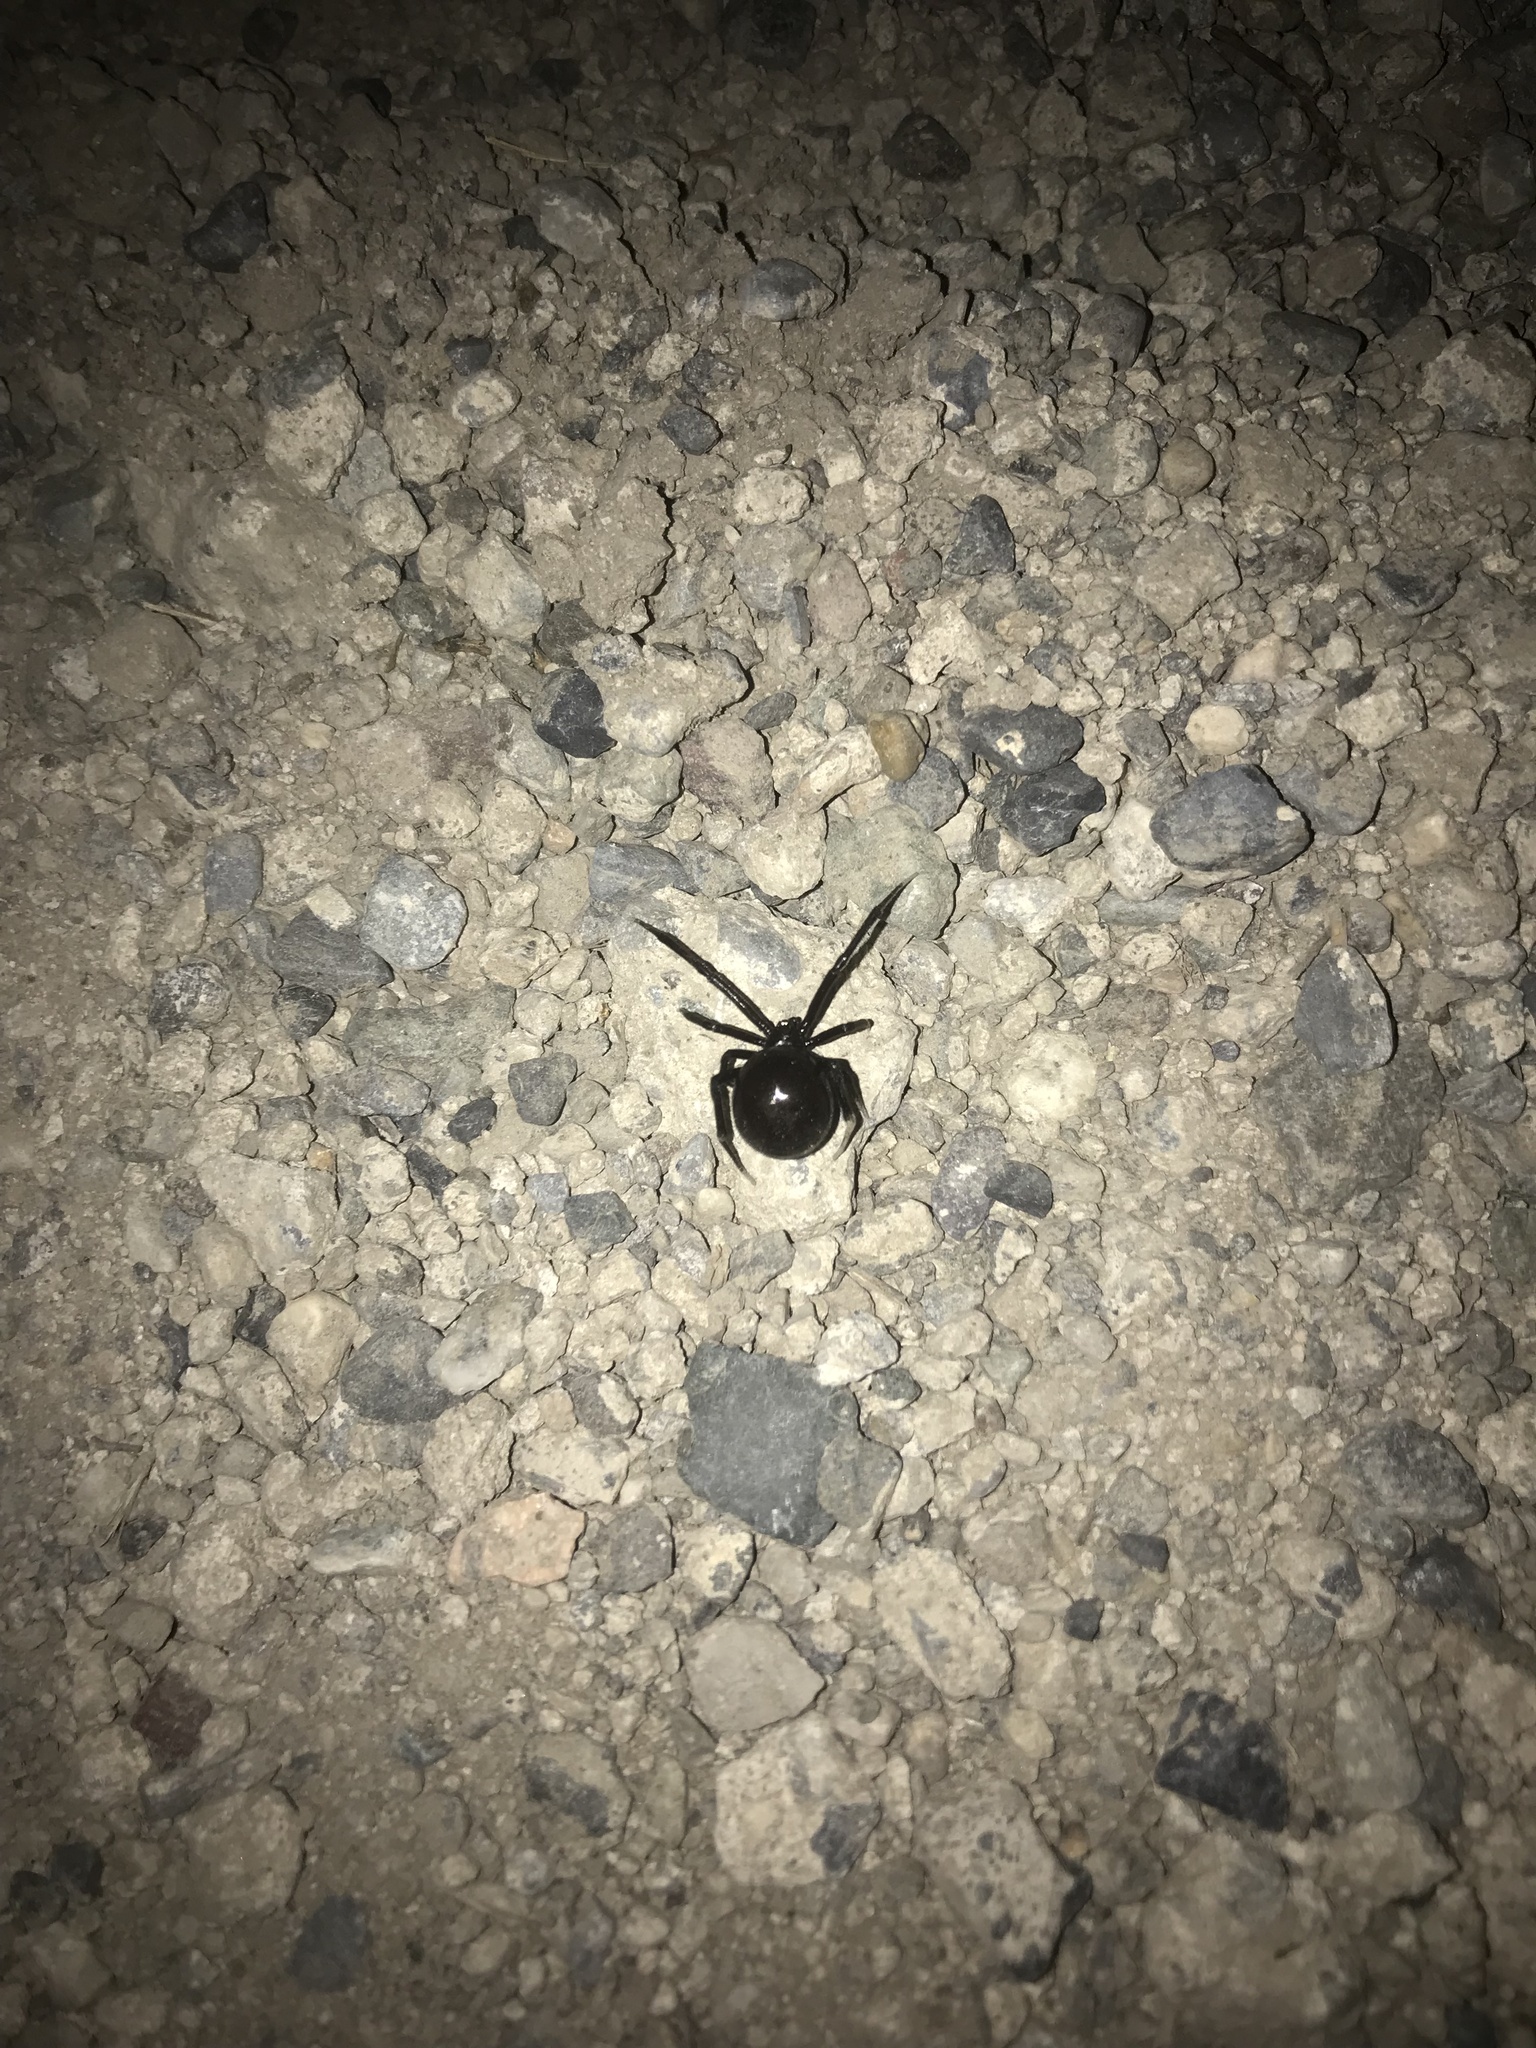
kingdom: Animalia
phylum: Arthropoda
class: Arachnida
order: Araneae
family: Theridiidae
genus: Latrodectus
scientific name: Latrodectus hesperus
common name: Western black widow
